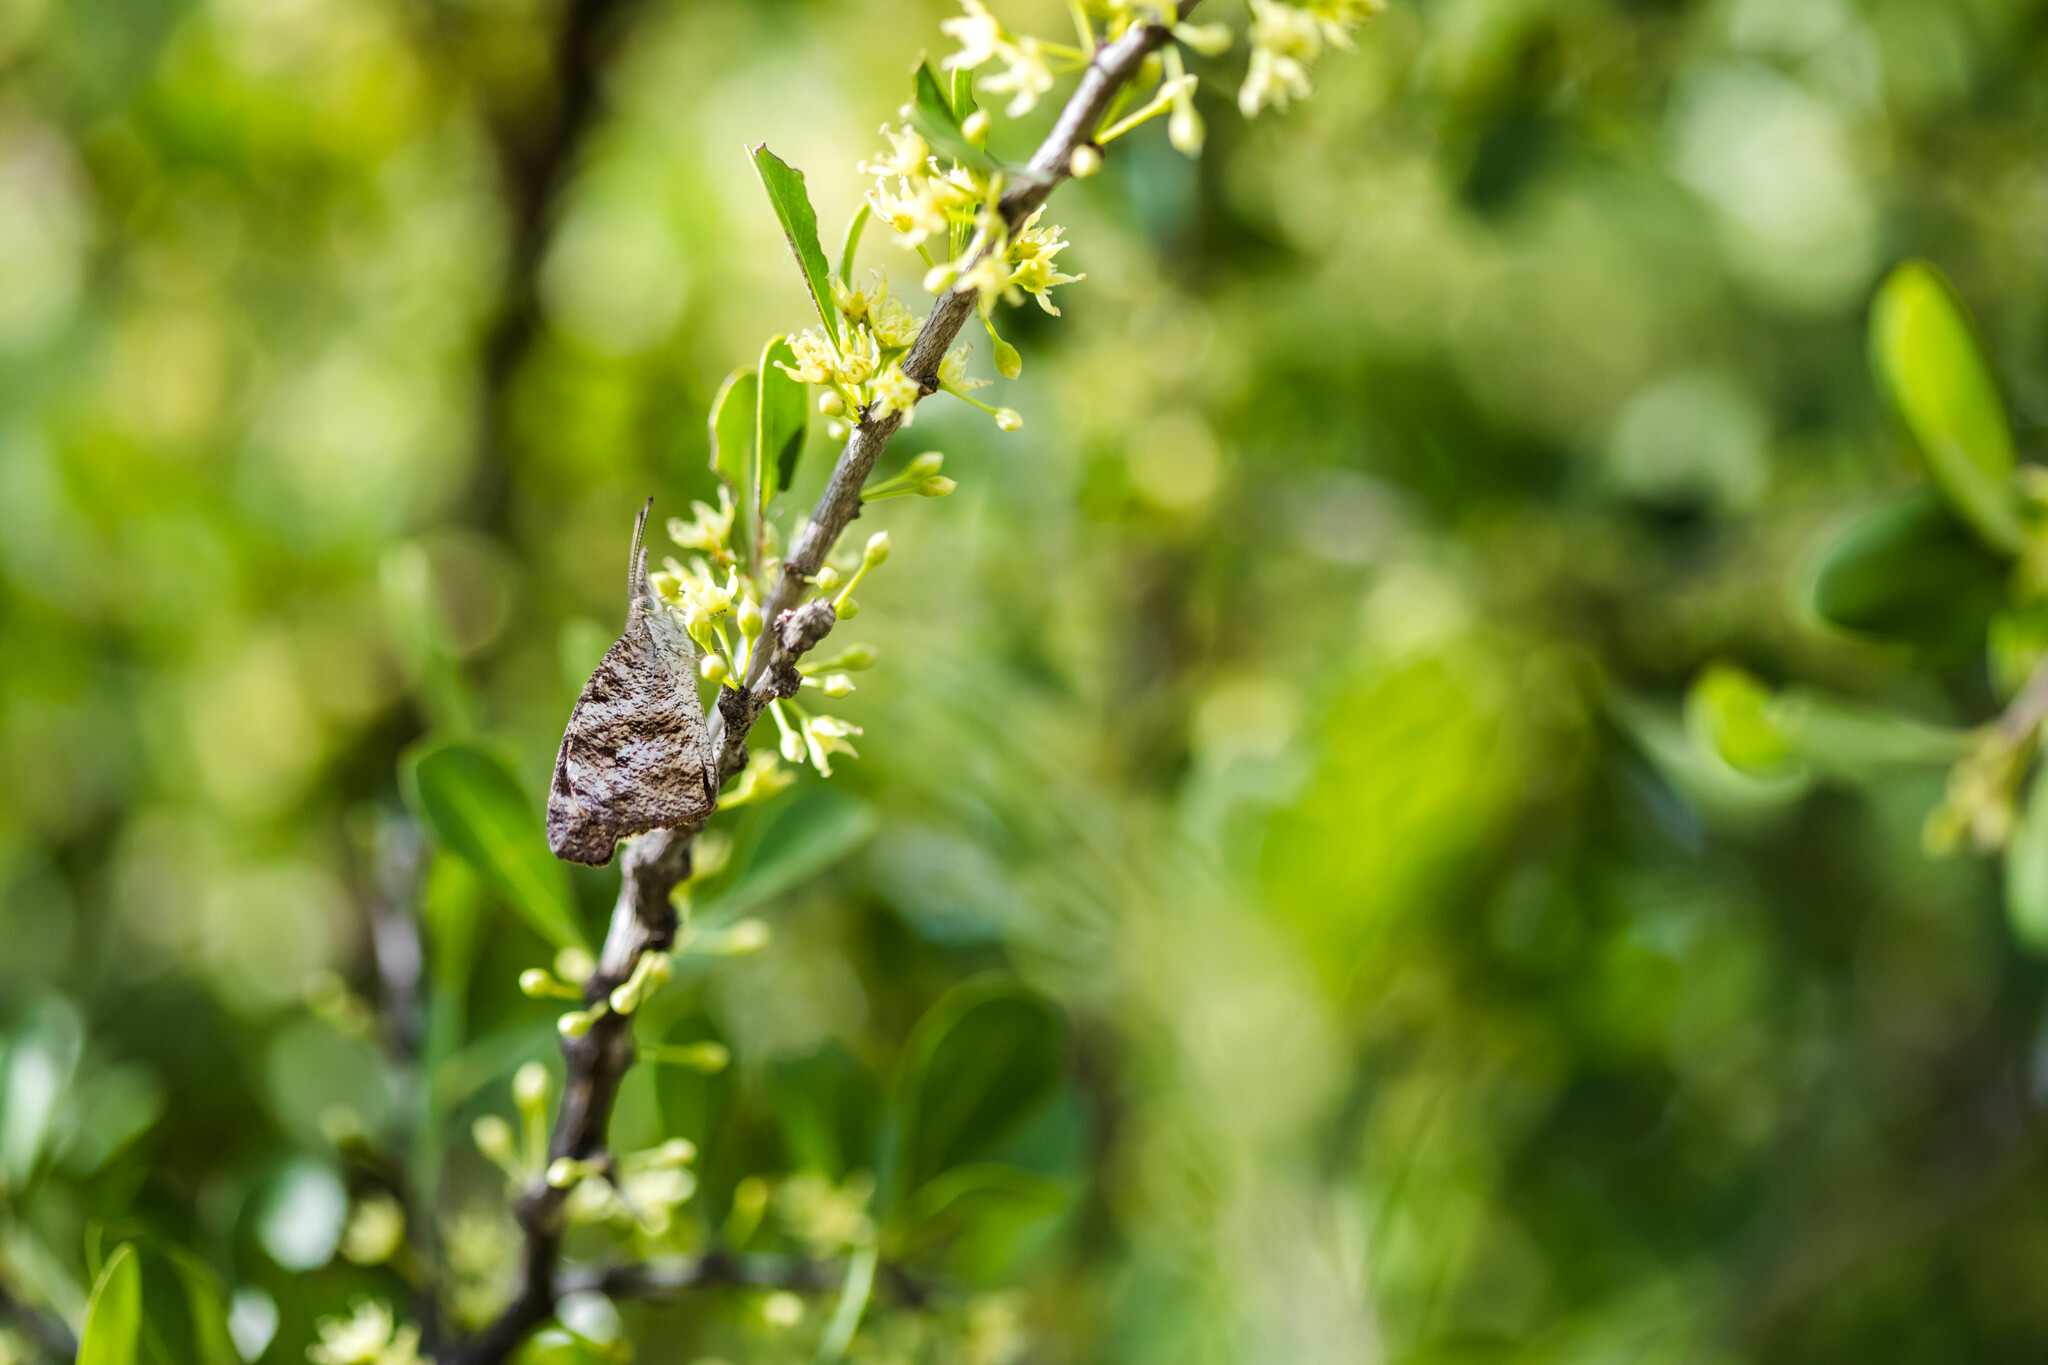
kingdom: Animalia
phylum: Arthropoda
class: Insecta
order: Lepidoptera
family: Nymphalidae
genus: Libytheana
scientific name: Libytheana carinenta
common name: American snout
